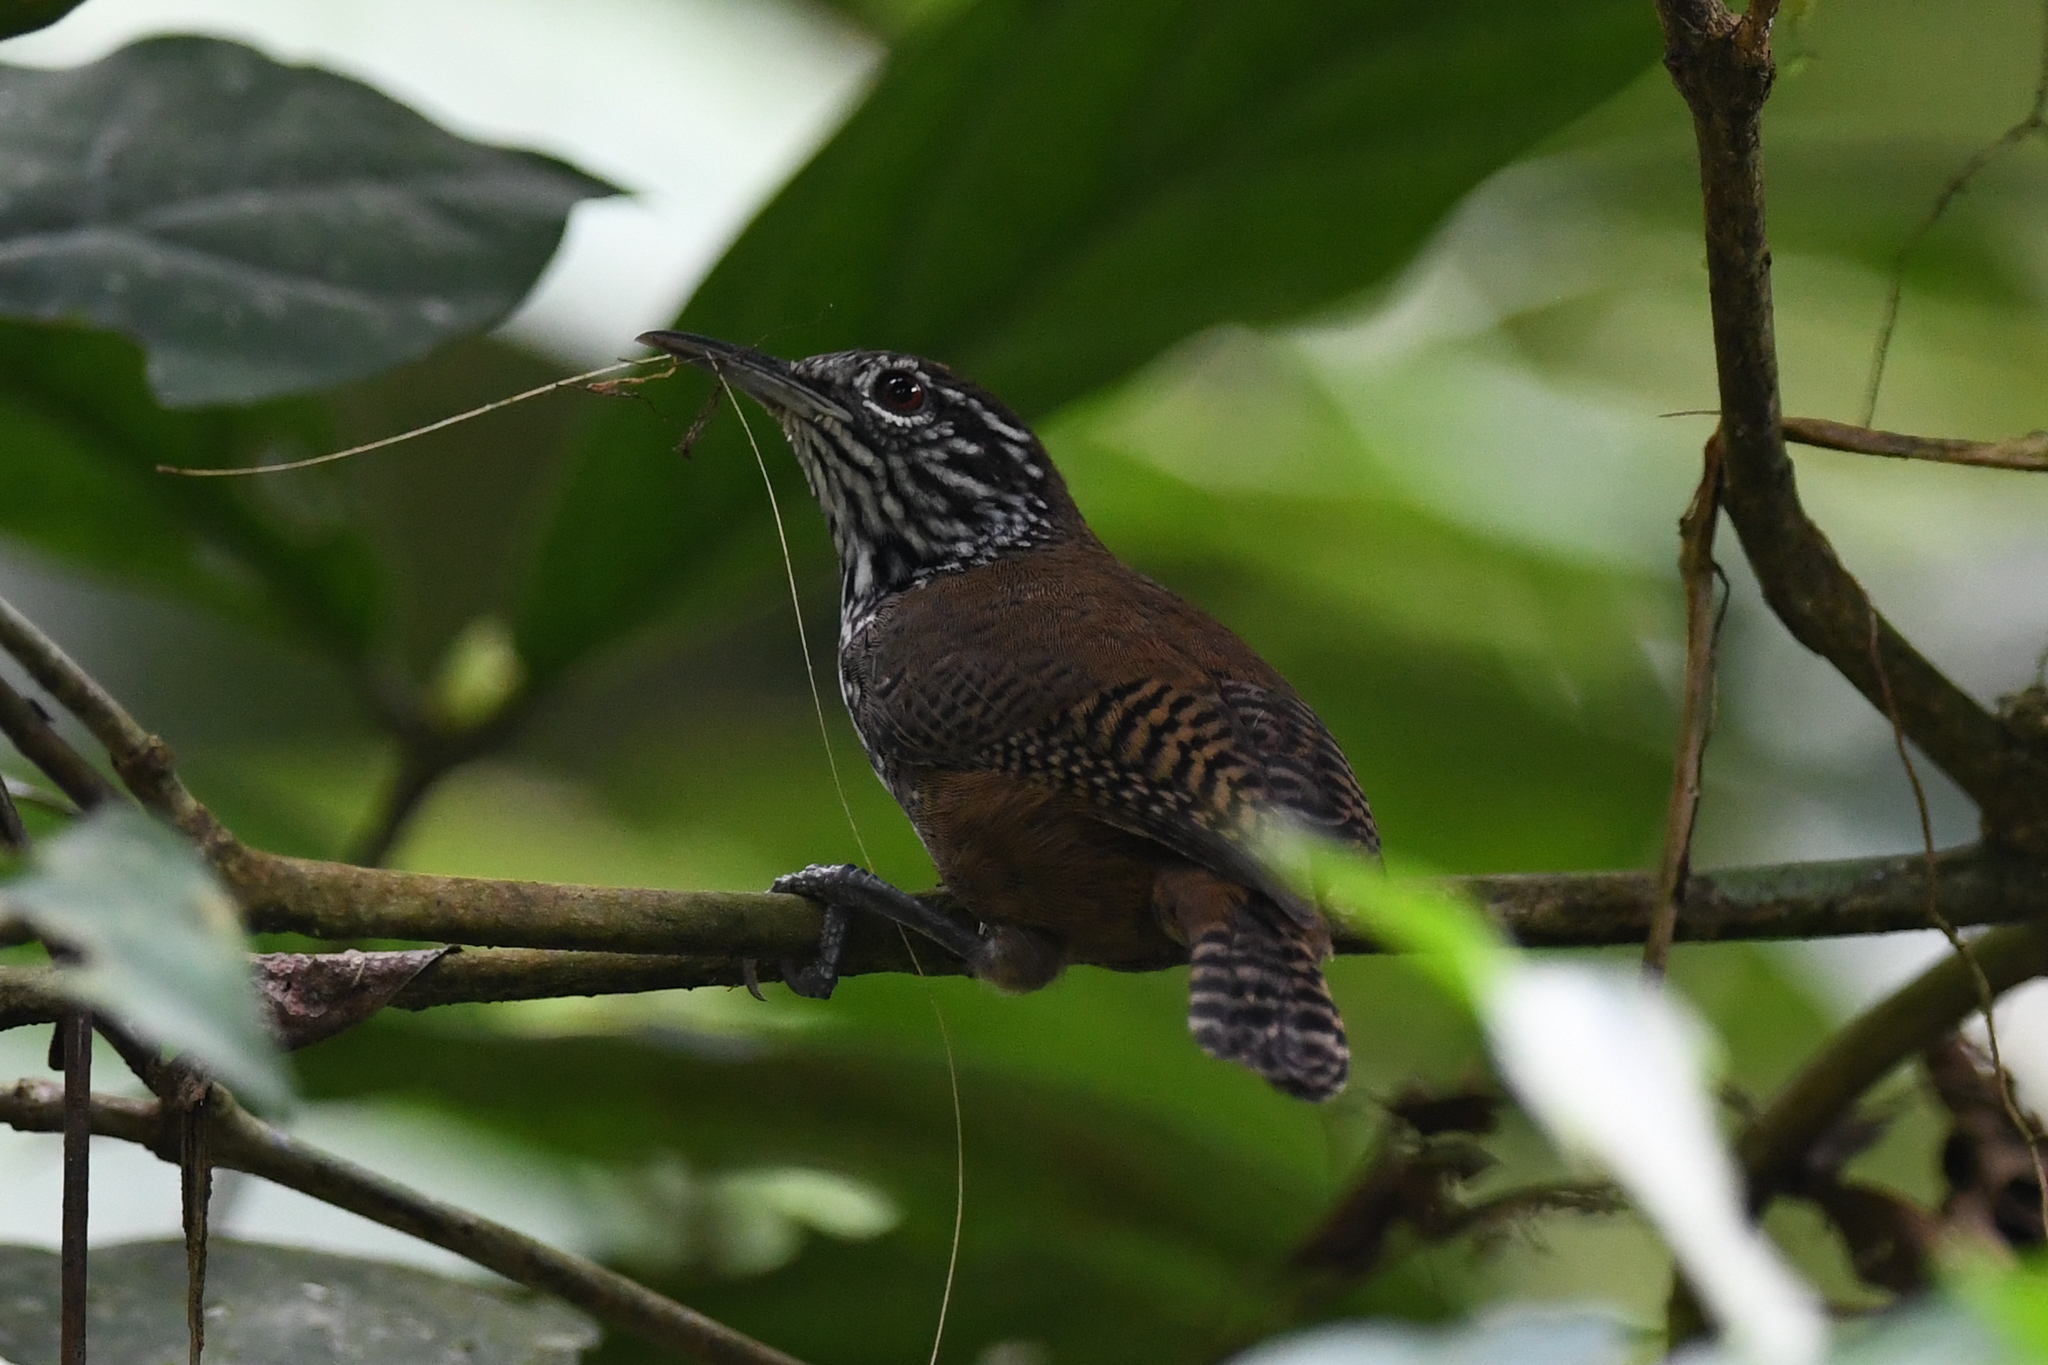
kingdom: Animalia
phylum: Chordata
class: Aves
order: Passeriformes
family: Troglodytidae
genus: Cantorchilus
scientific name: Cantorchilus thoracicus
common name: Stripe-breasted wren
